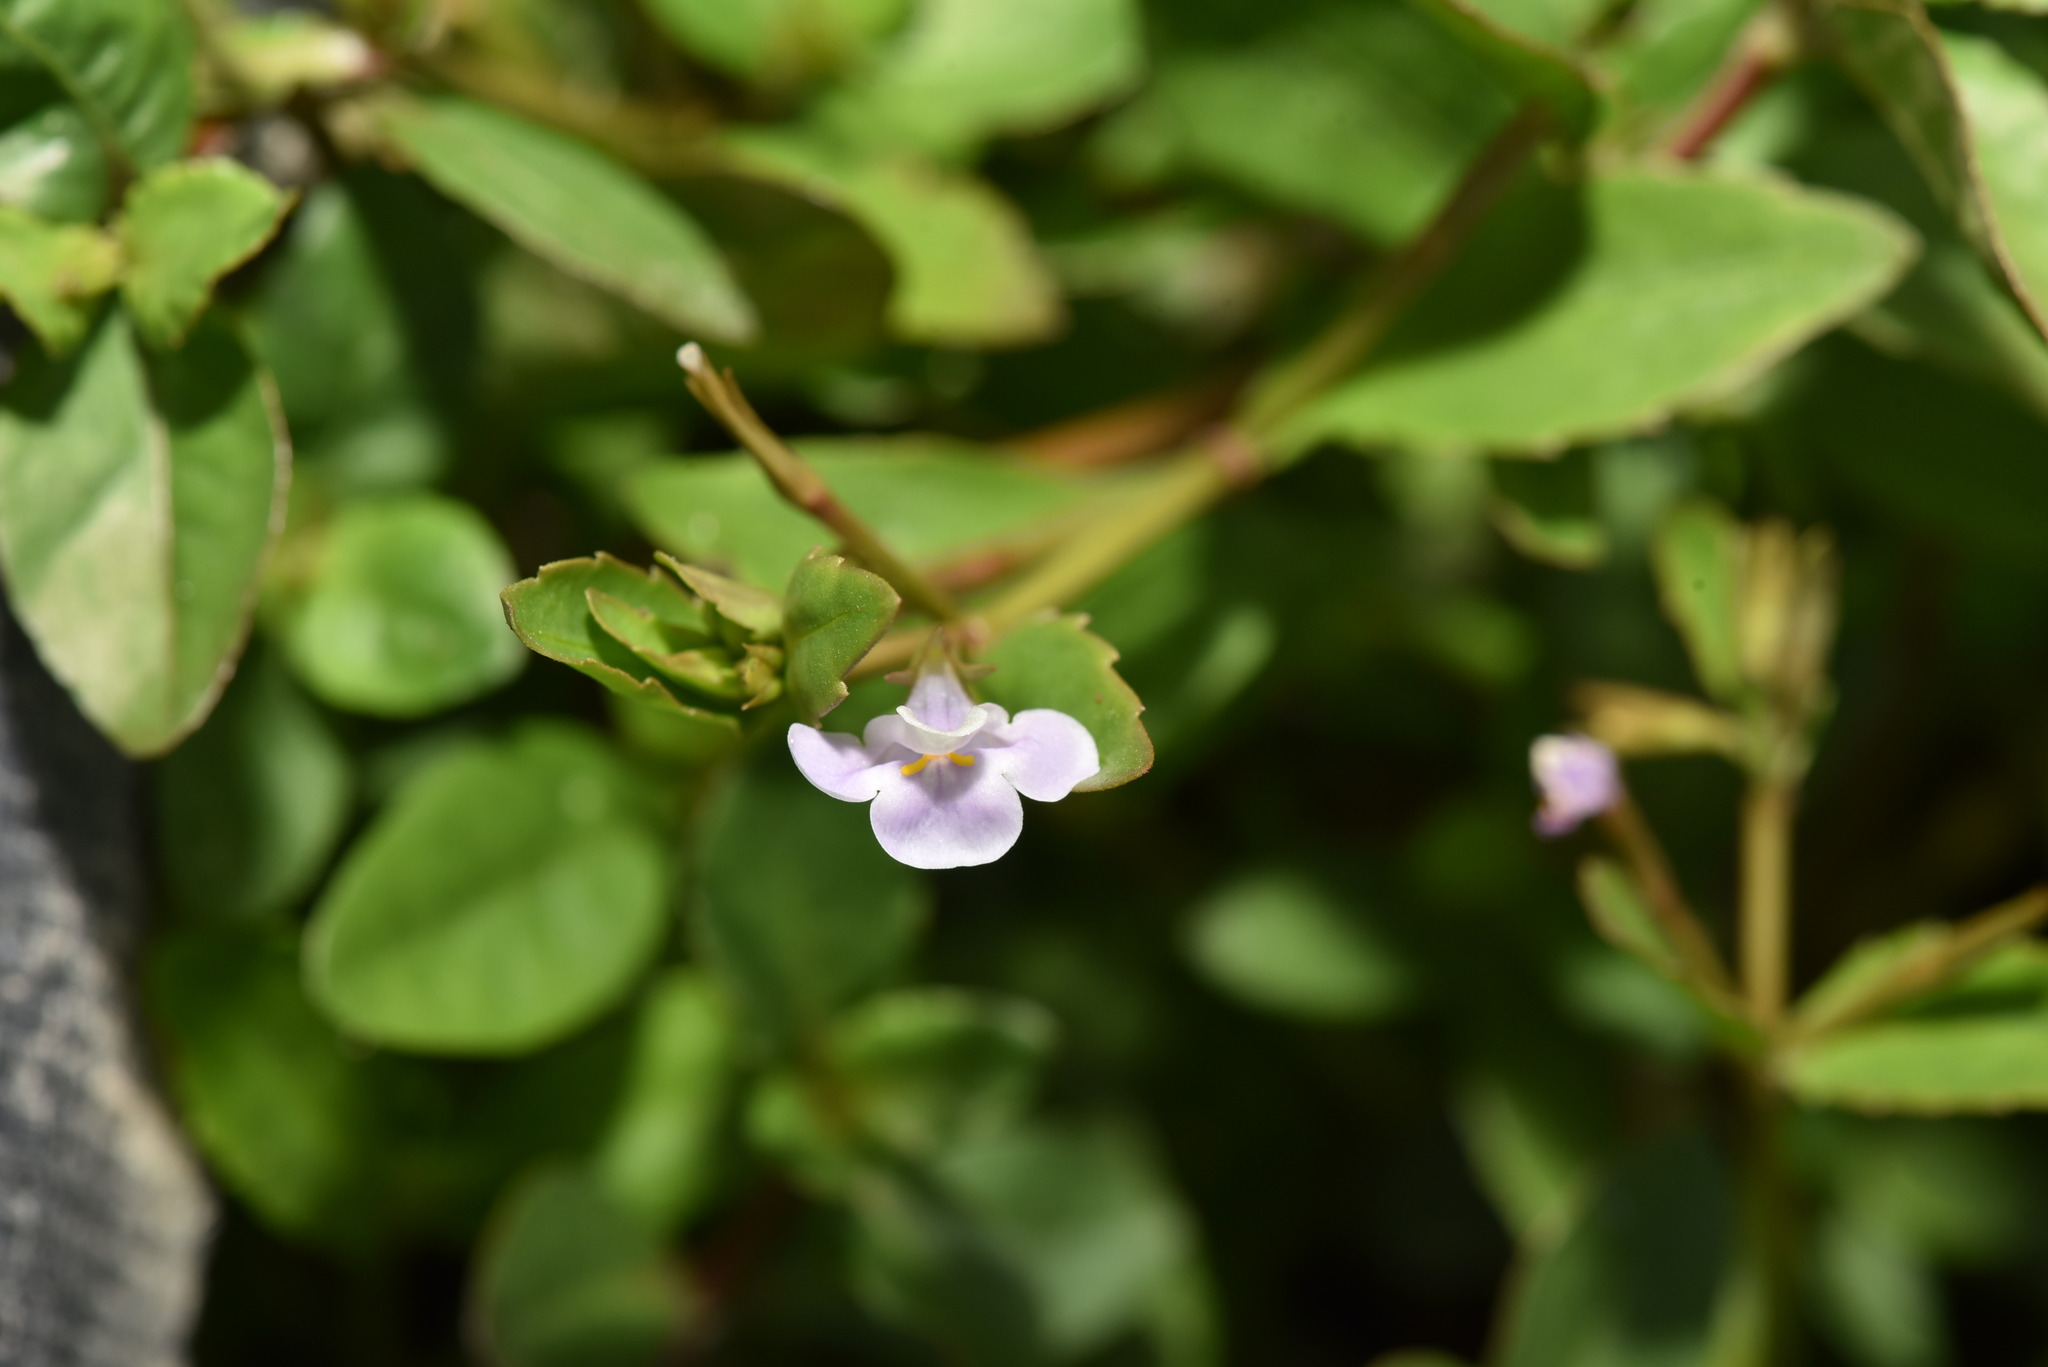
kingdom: Plantae
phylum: Tracheophyta
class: Magnoliopsida
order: Lamiales
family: Linderniaceae
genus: Bonnaya
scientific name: Bonnaya antipoda
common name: Sparrow false pimpernel
